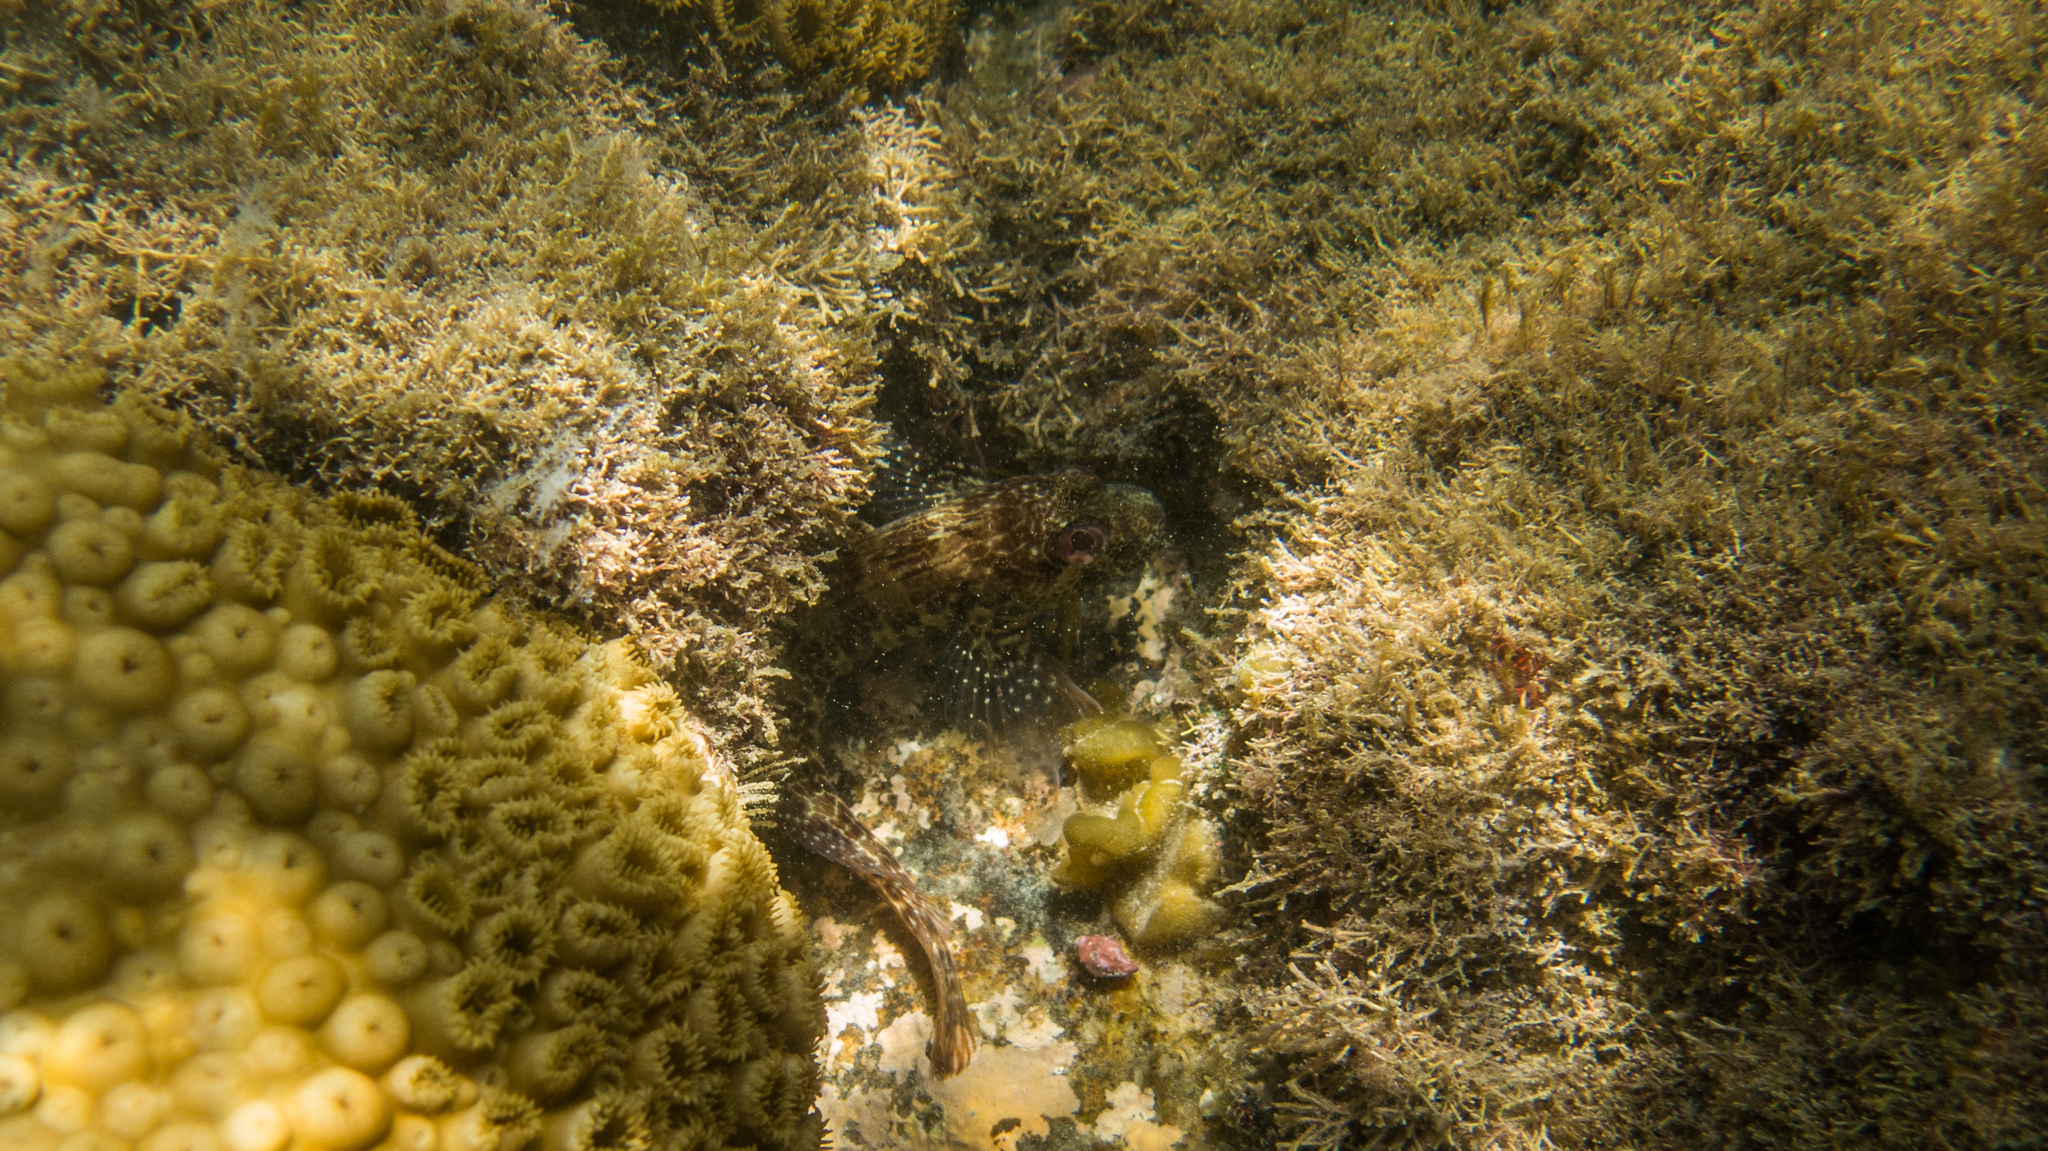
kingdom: Animalia
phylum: Chordata
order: Perciformes
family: Blenniidae
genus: Parablennius
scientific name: Parablennius pilicornis
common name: Ringneck blenny
